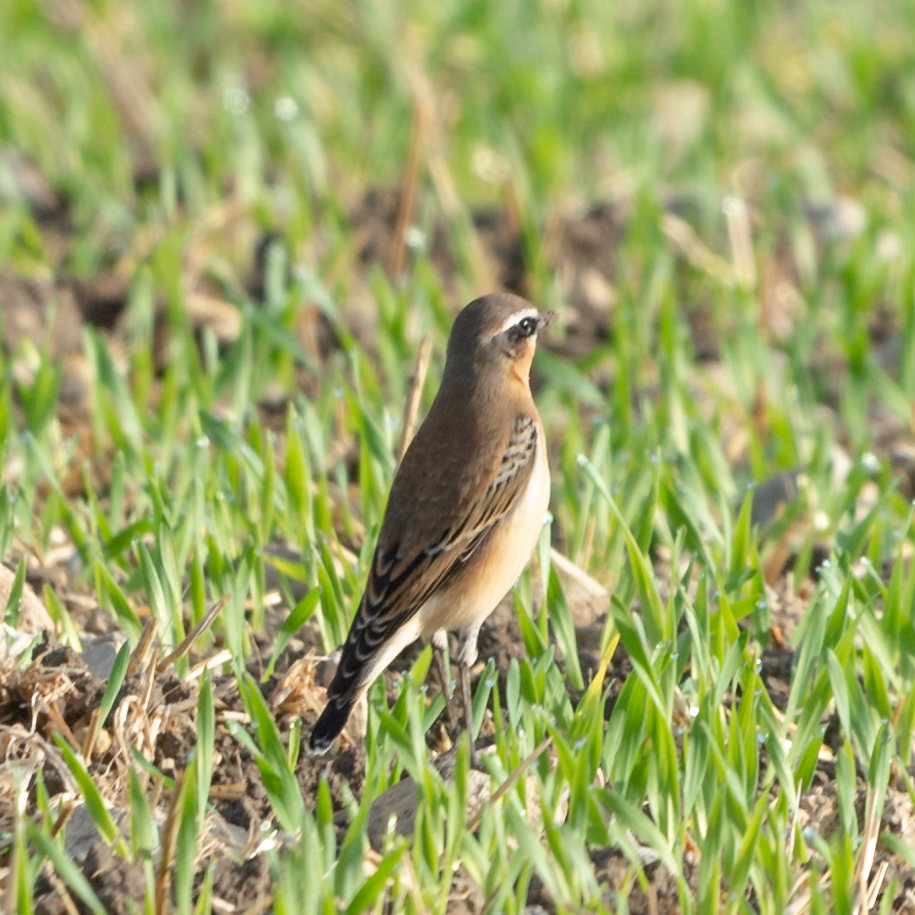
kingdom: Animalia
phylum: Chordata
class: Aves
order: Passeriformes
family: Muscicapidae
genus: Oenanthe
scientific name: Oenanthe oenanthe
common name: Northern wheatear
